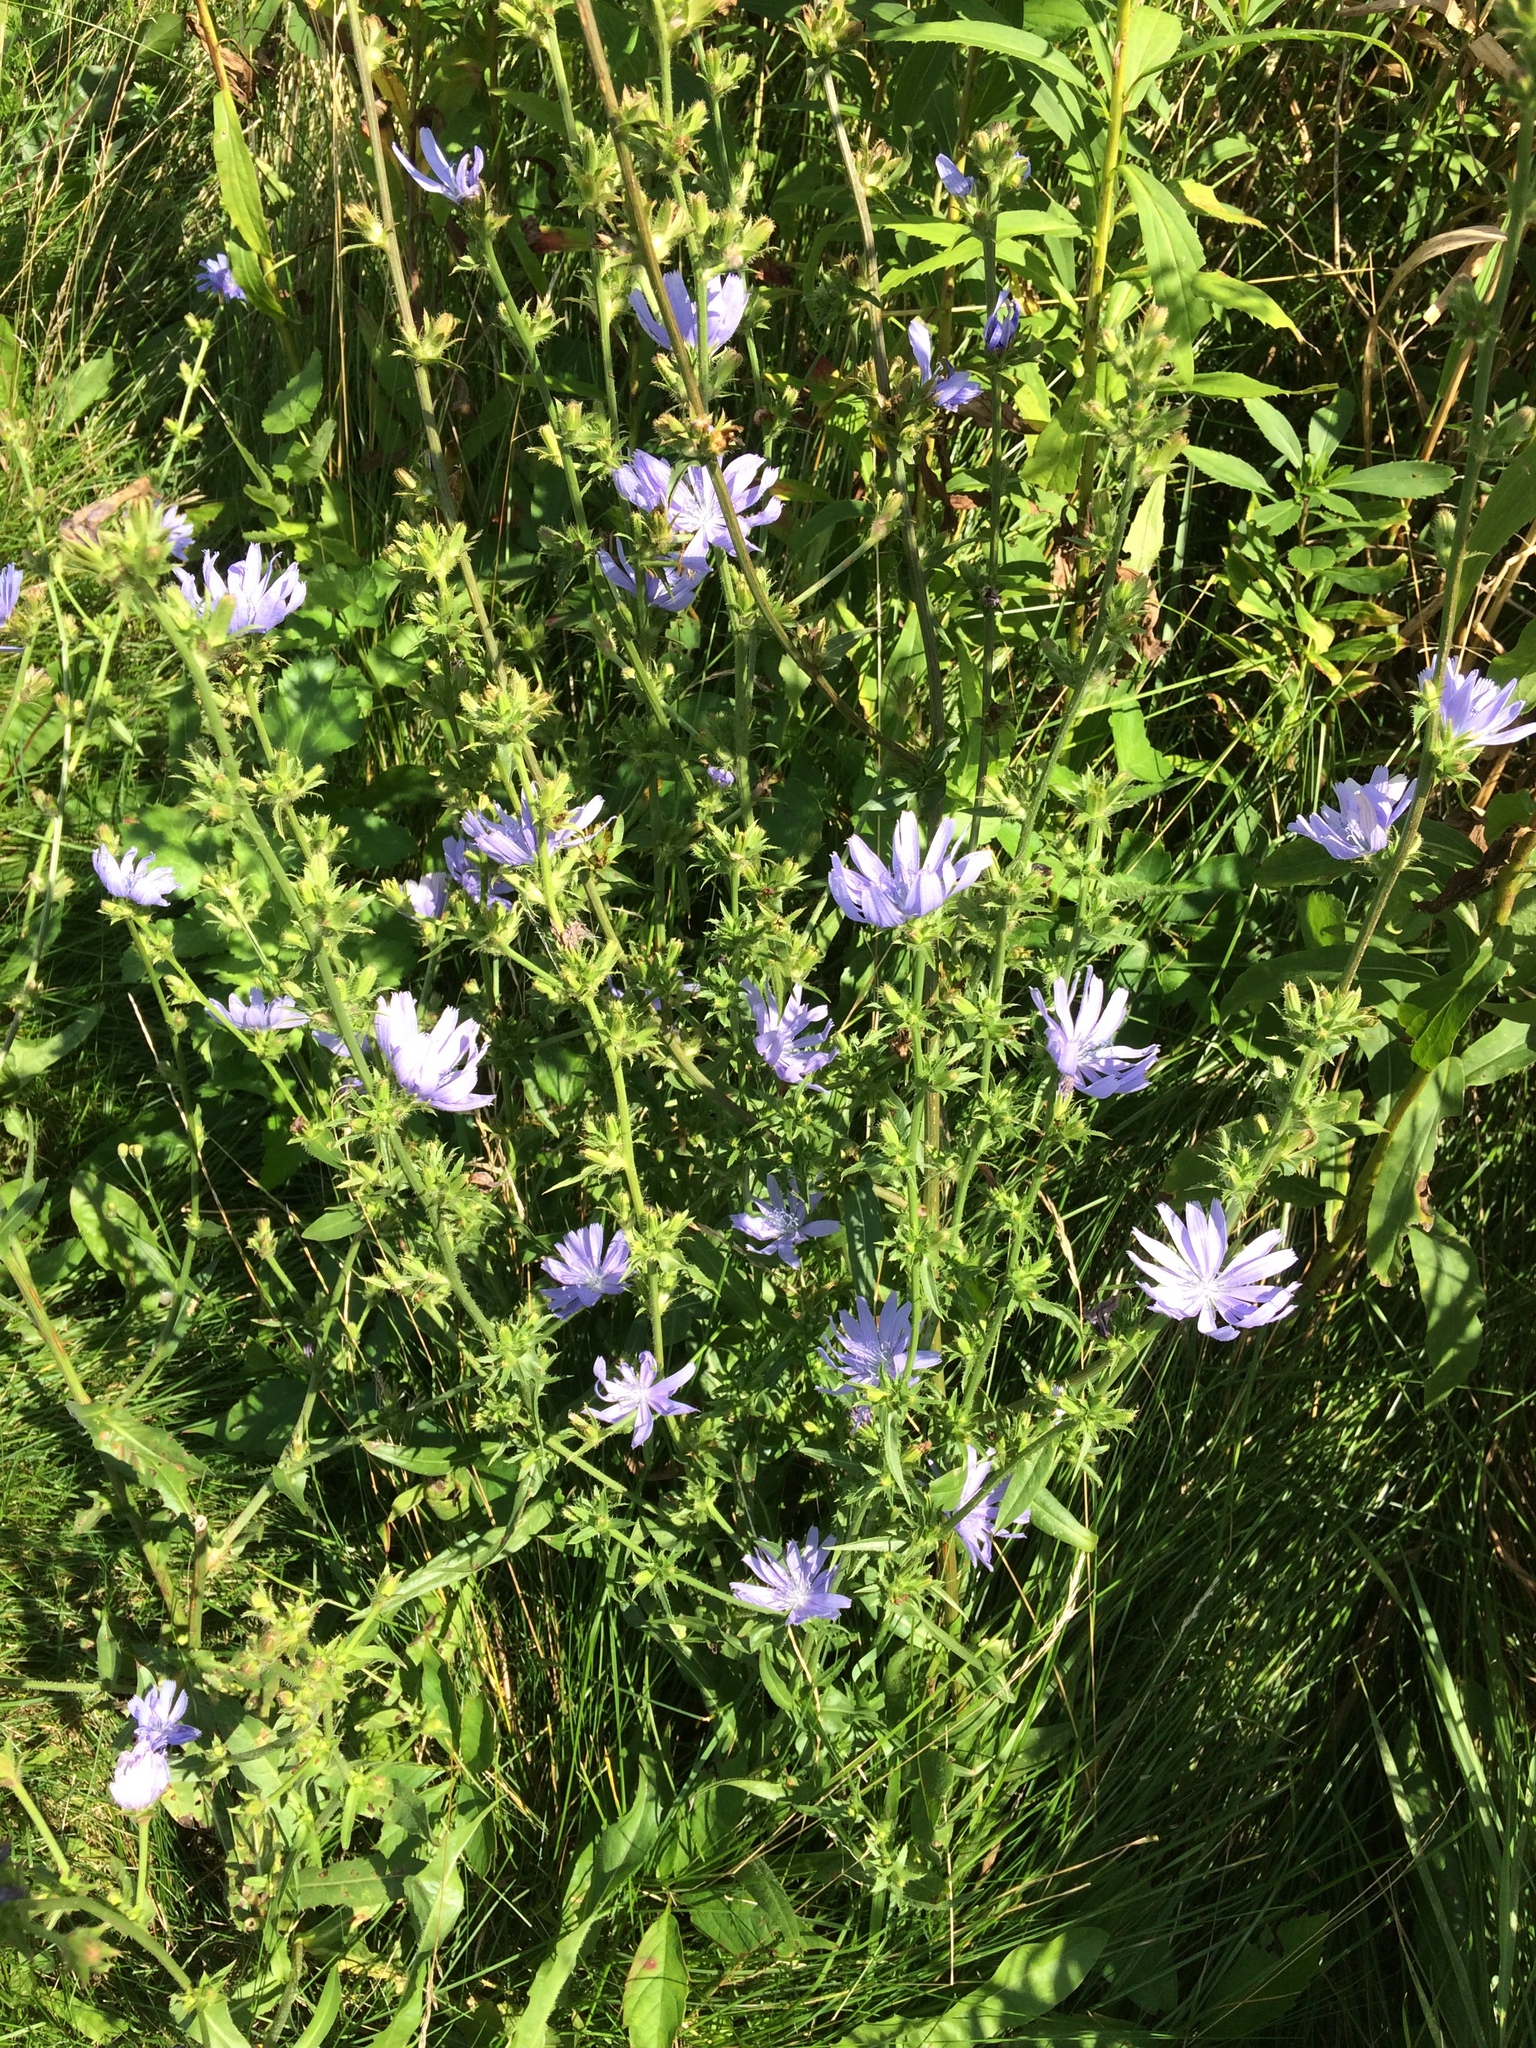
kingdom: Plantae
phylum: Tracheophyta
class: Magnoliopsida
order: Asterales
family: Asteraceae
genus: Cichorium
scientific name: Cichorium intybus
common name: Chicory
